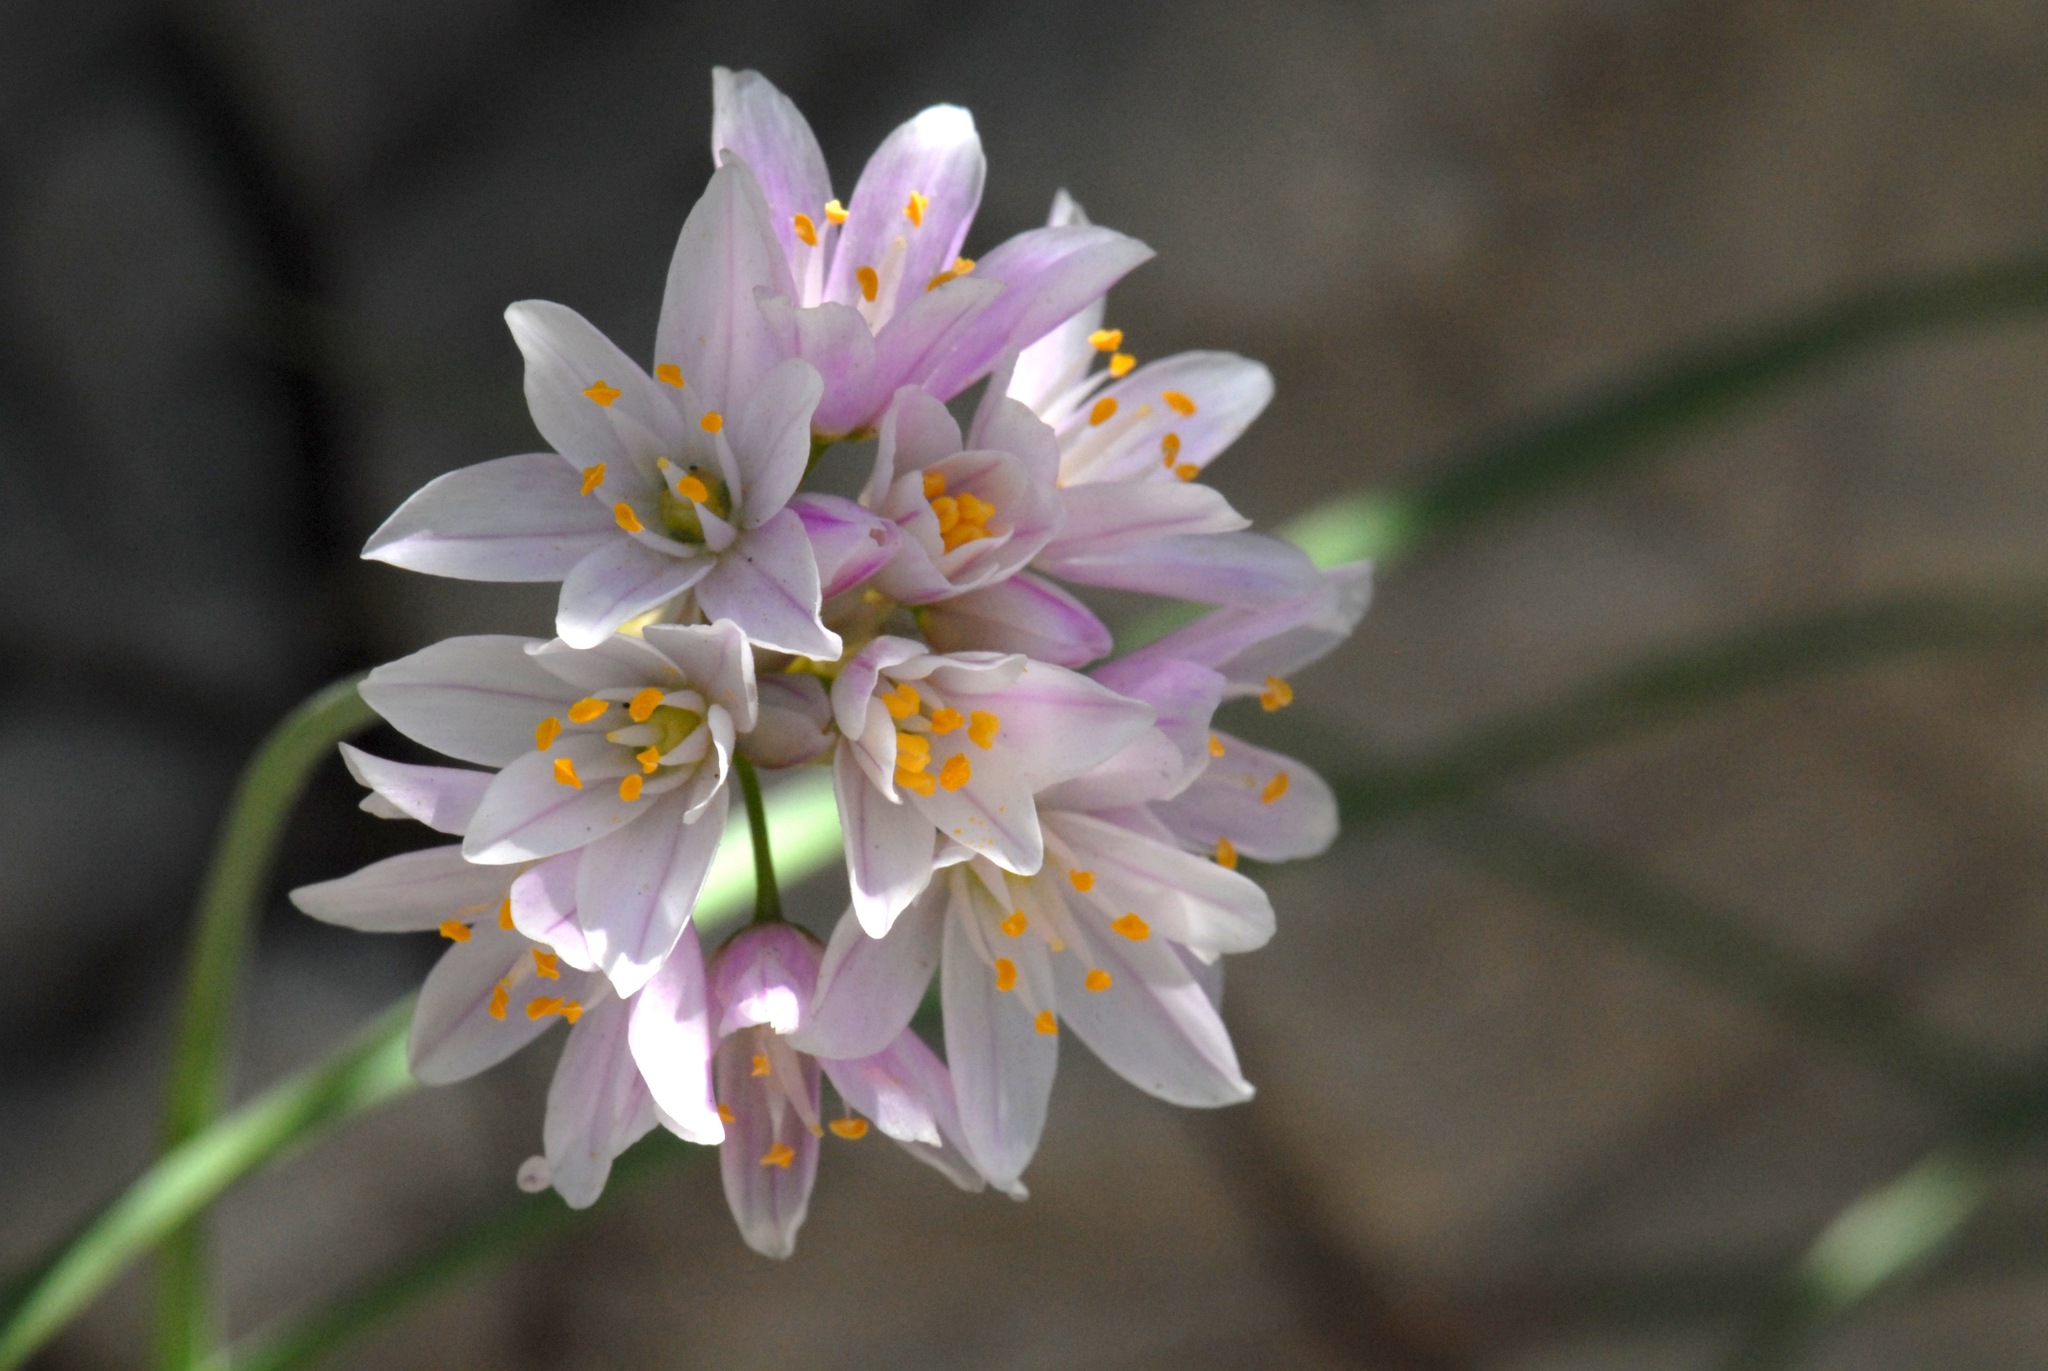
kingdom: Plantae
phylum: Tracheophyta
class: Liliopsida
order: Asparagales
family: Amaryllidaceae
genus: Allium
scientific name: Allium roseum
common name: Rosy garlic
